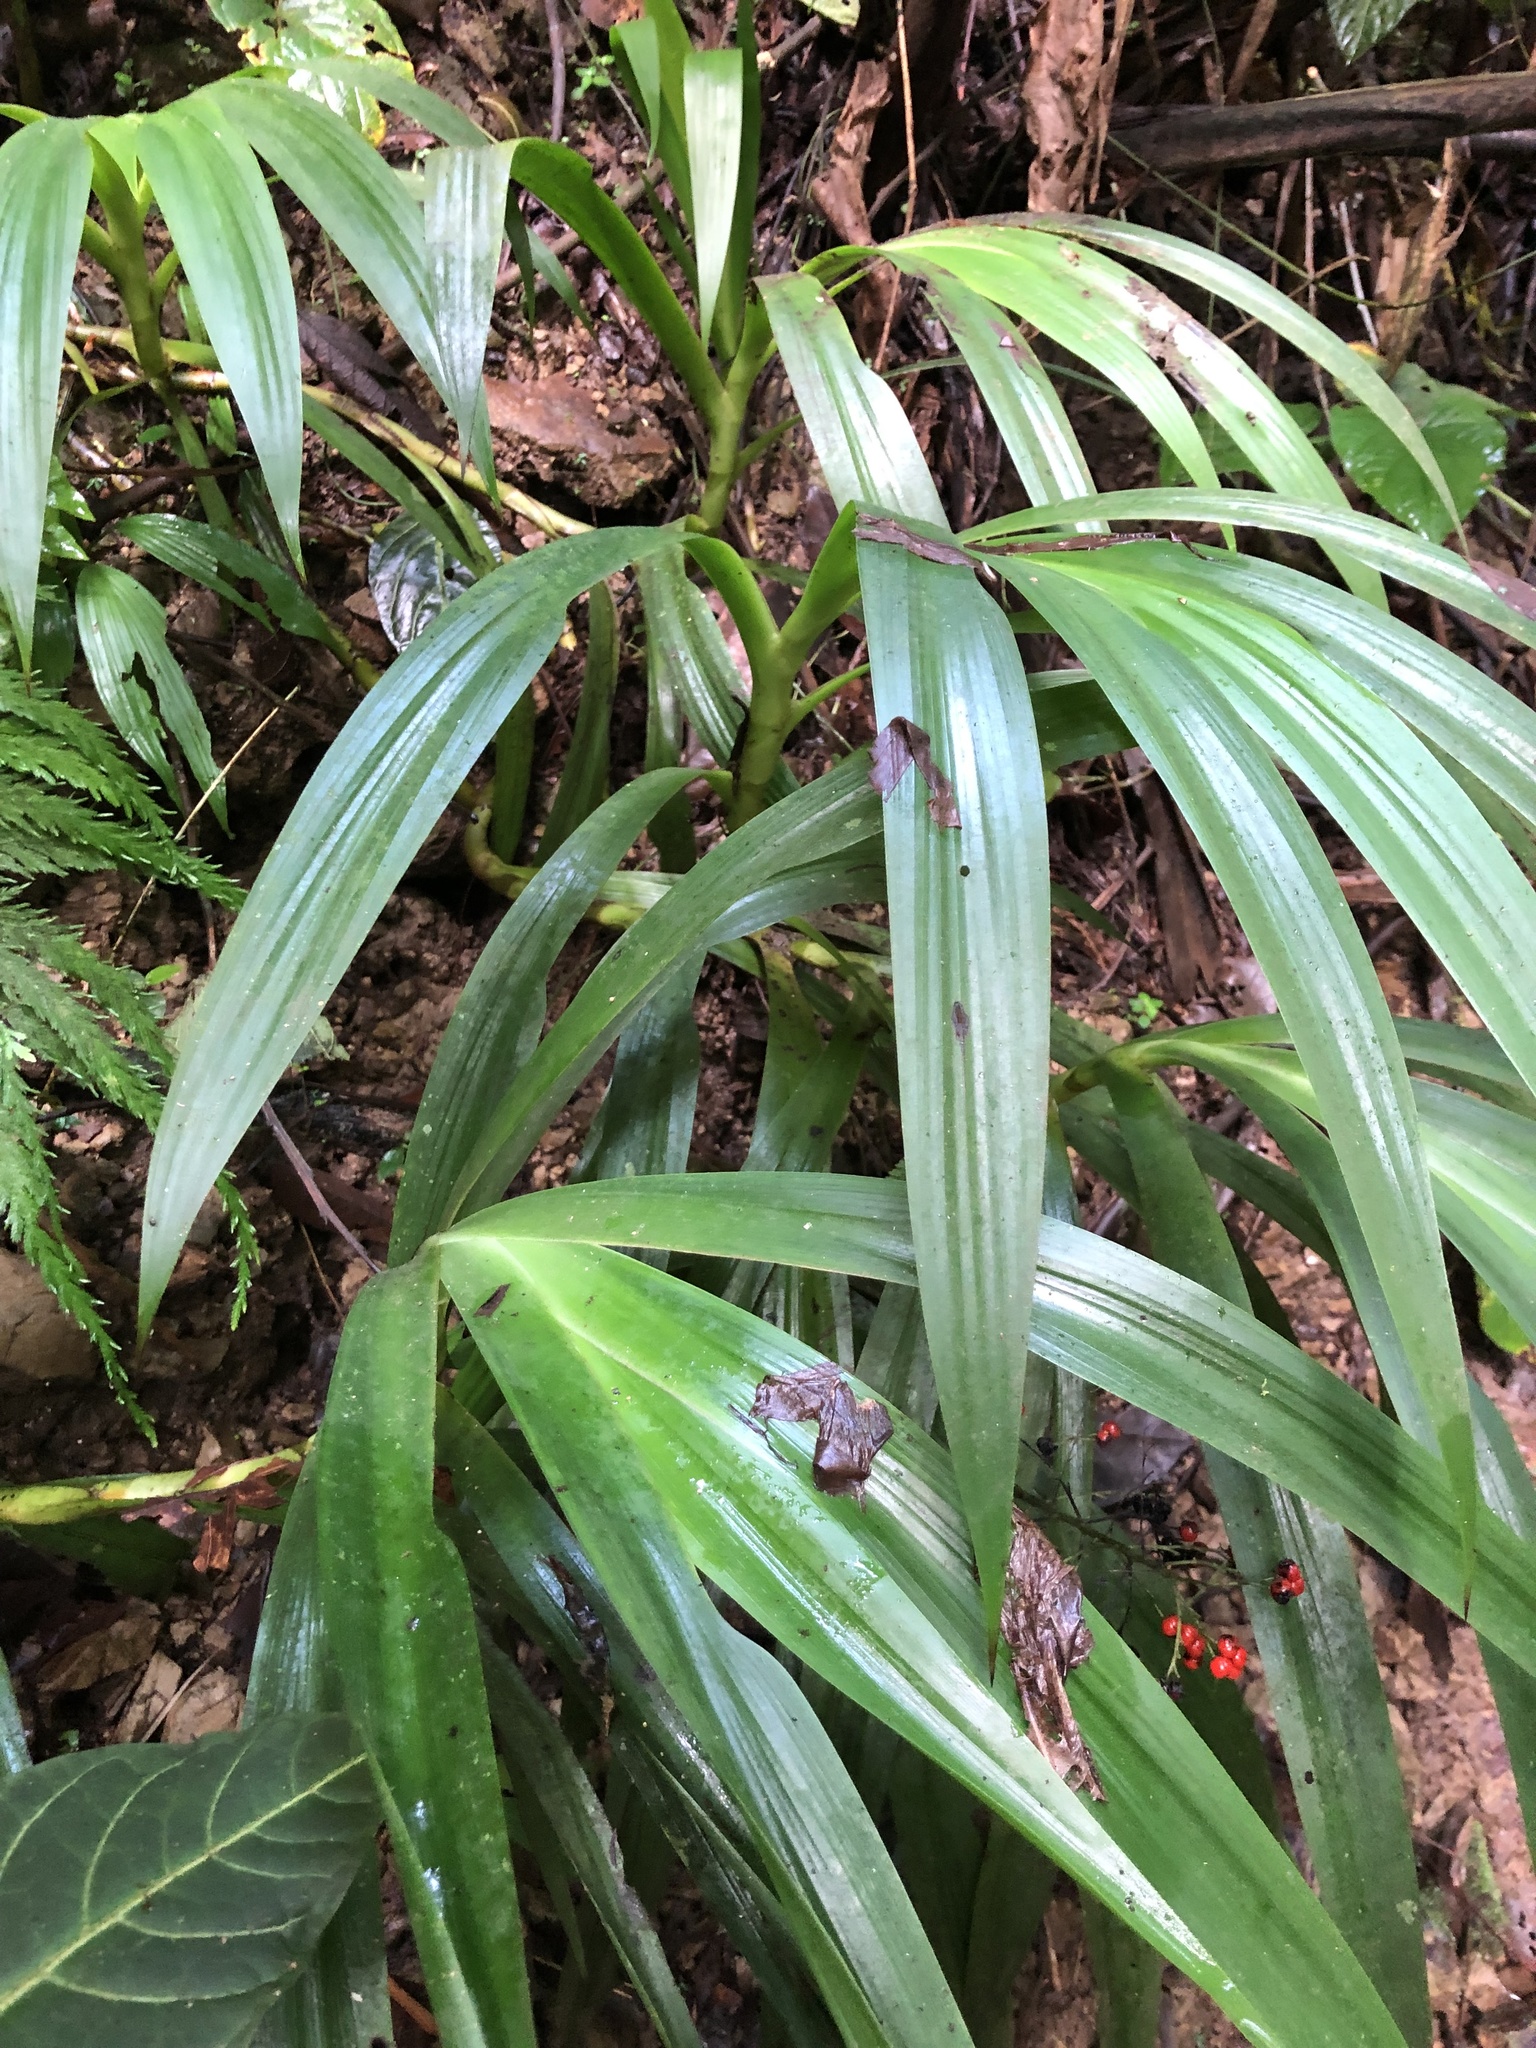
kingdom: Plantae
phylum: Tracheophyta
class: Liliopsida
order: Commelinales
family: Haemodoraceae
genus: Xiphidium
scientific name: Xiphidium caeruleum
